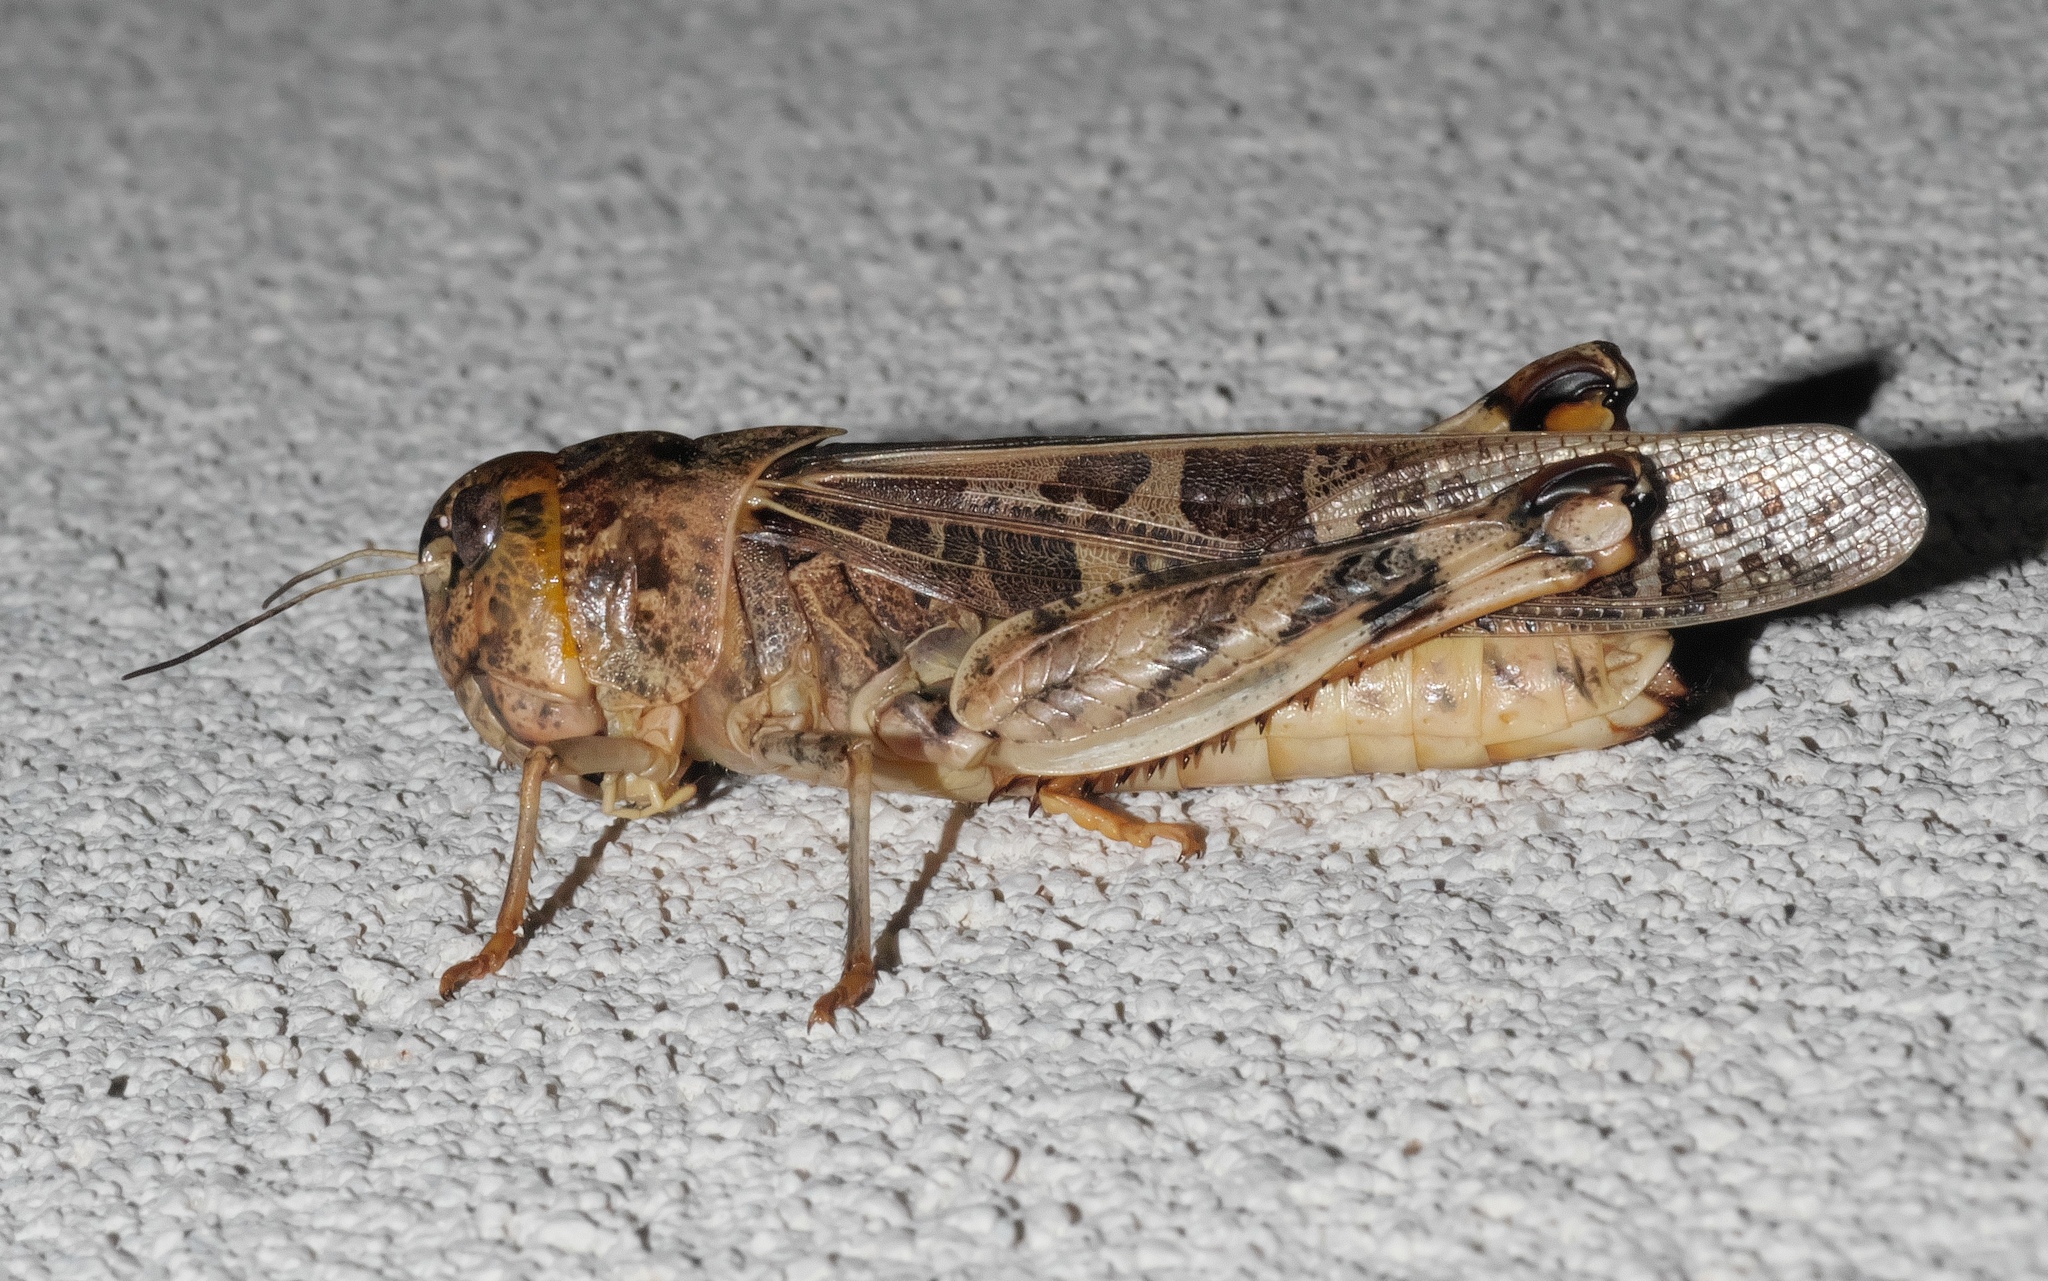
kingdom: Animalia
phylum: Arthropoda
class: Insecta
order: Orthoptera
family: Acrididae
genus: Hippiscus
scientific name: Hippiscus ocelote
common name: Wrinkled grasshopper
